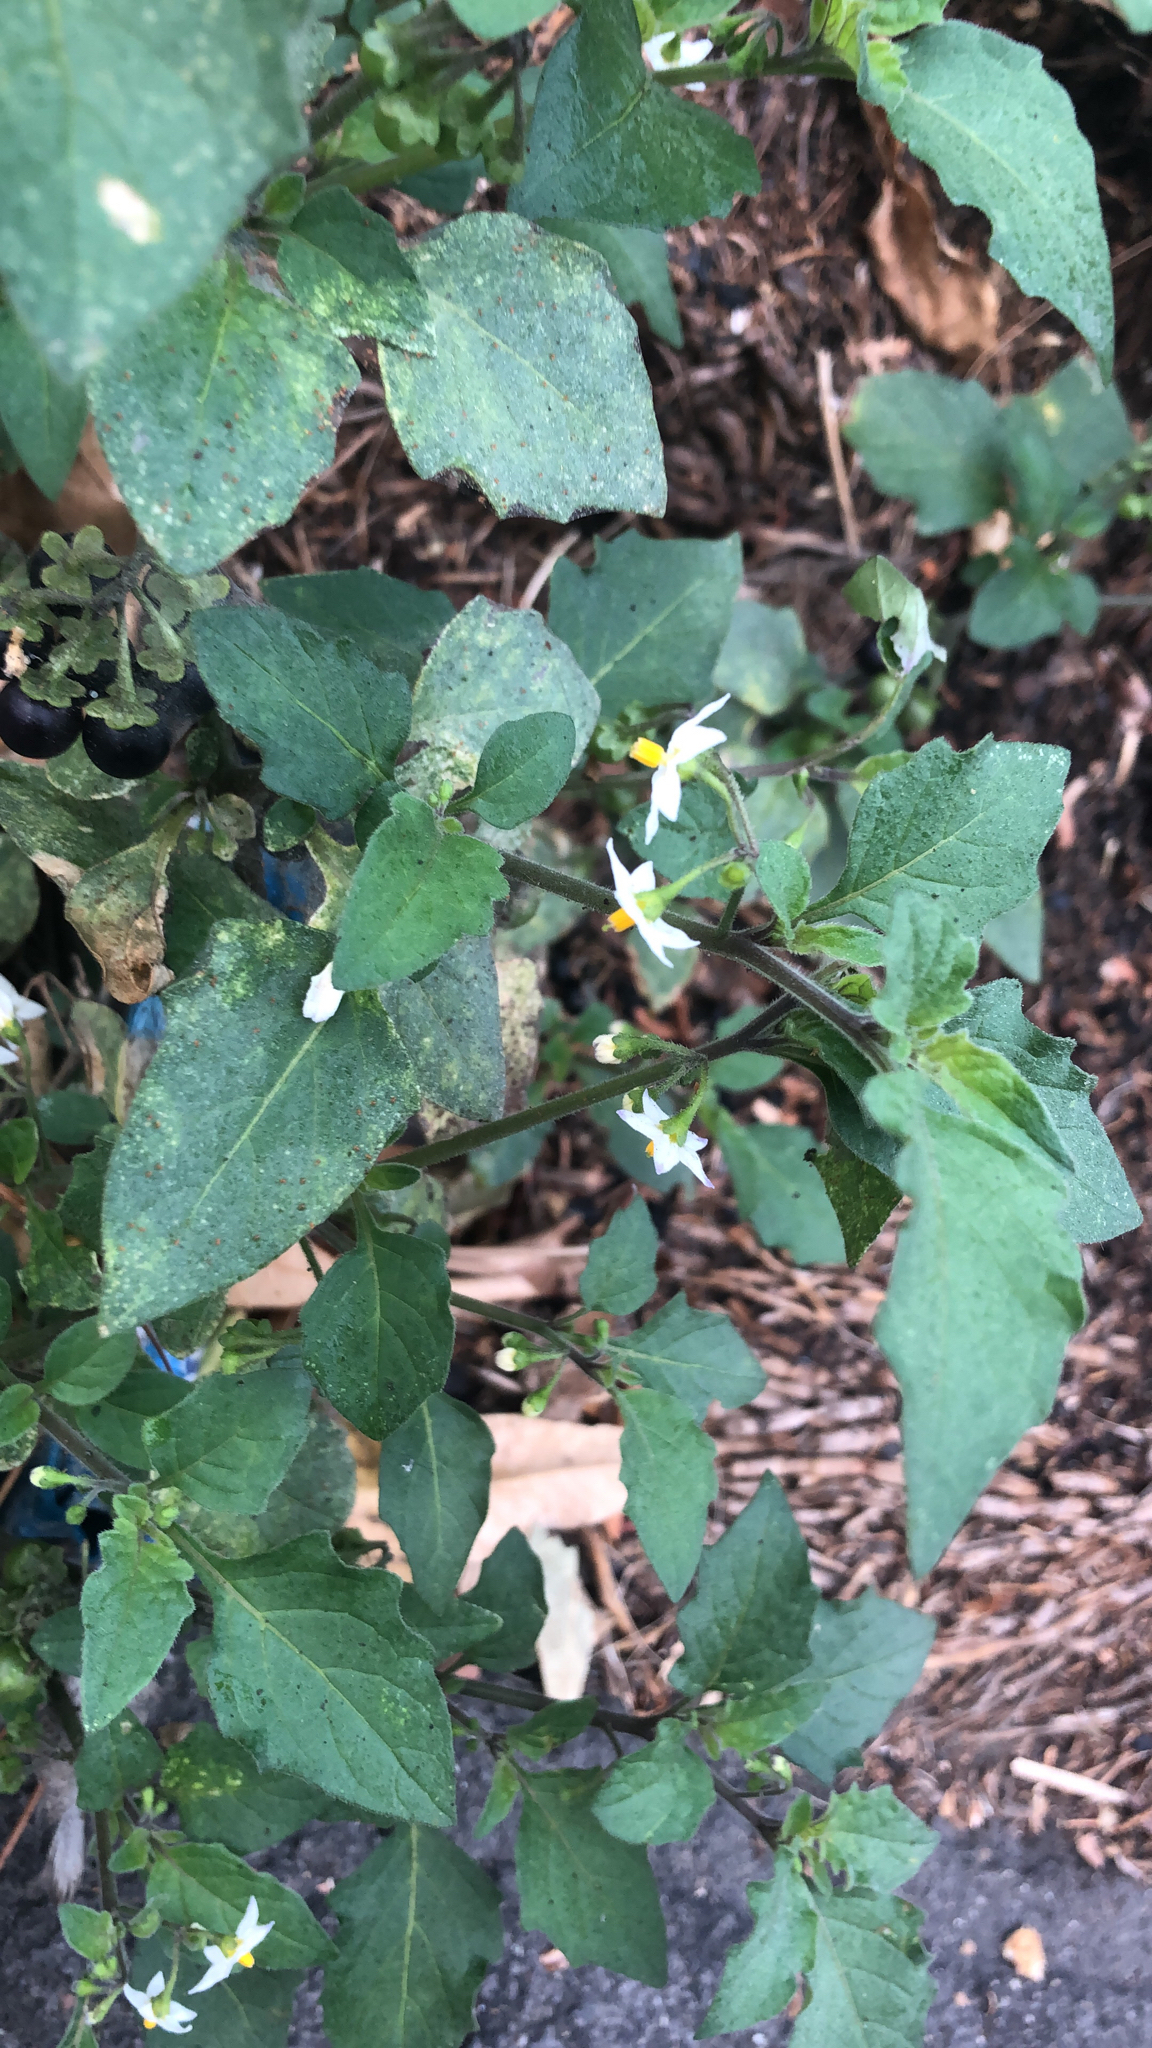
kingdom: Plantae
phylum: Tracheophyta
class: Magnoliopsida
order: Solanales
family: Solanaceae
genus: Solanum
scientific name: Solanum nigrum
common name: Black nightshade
